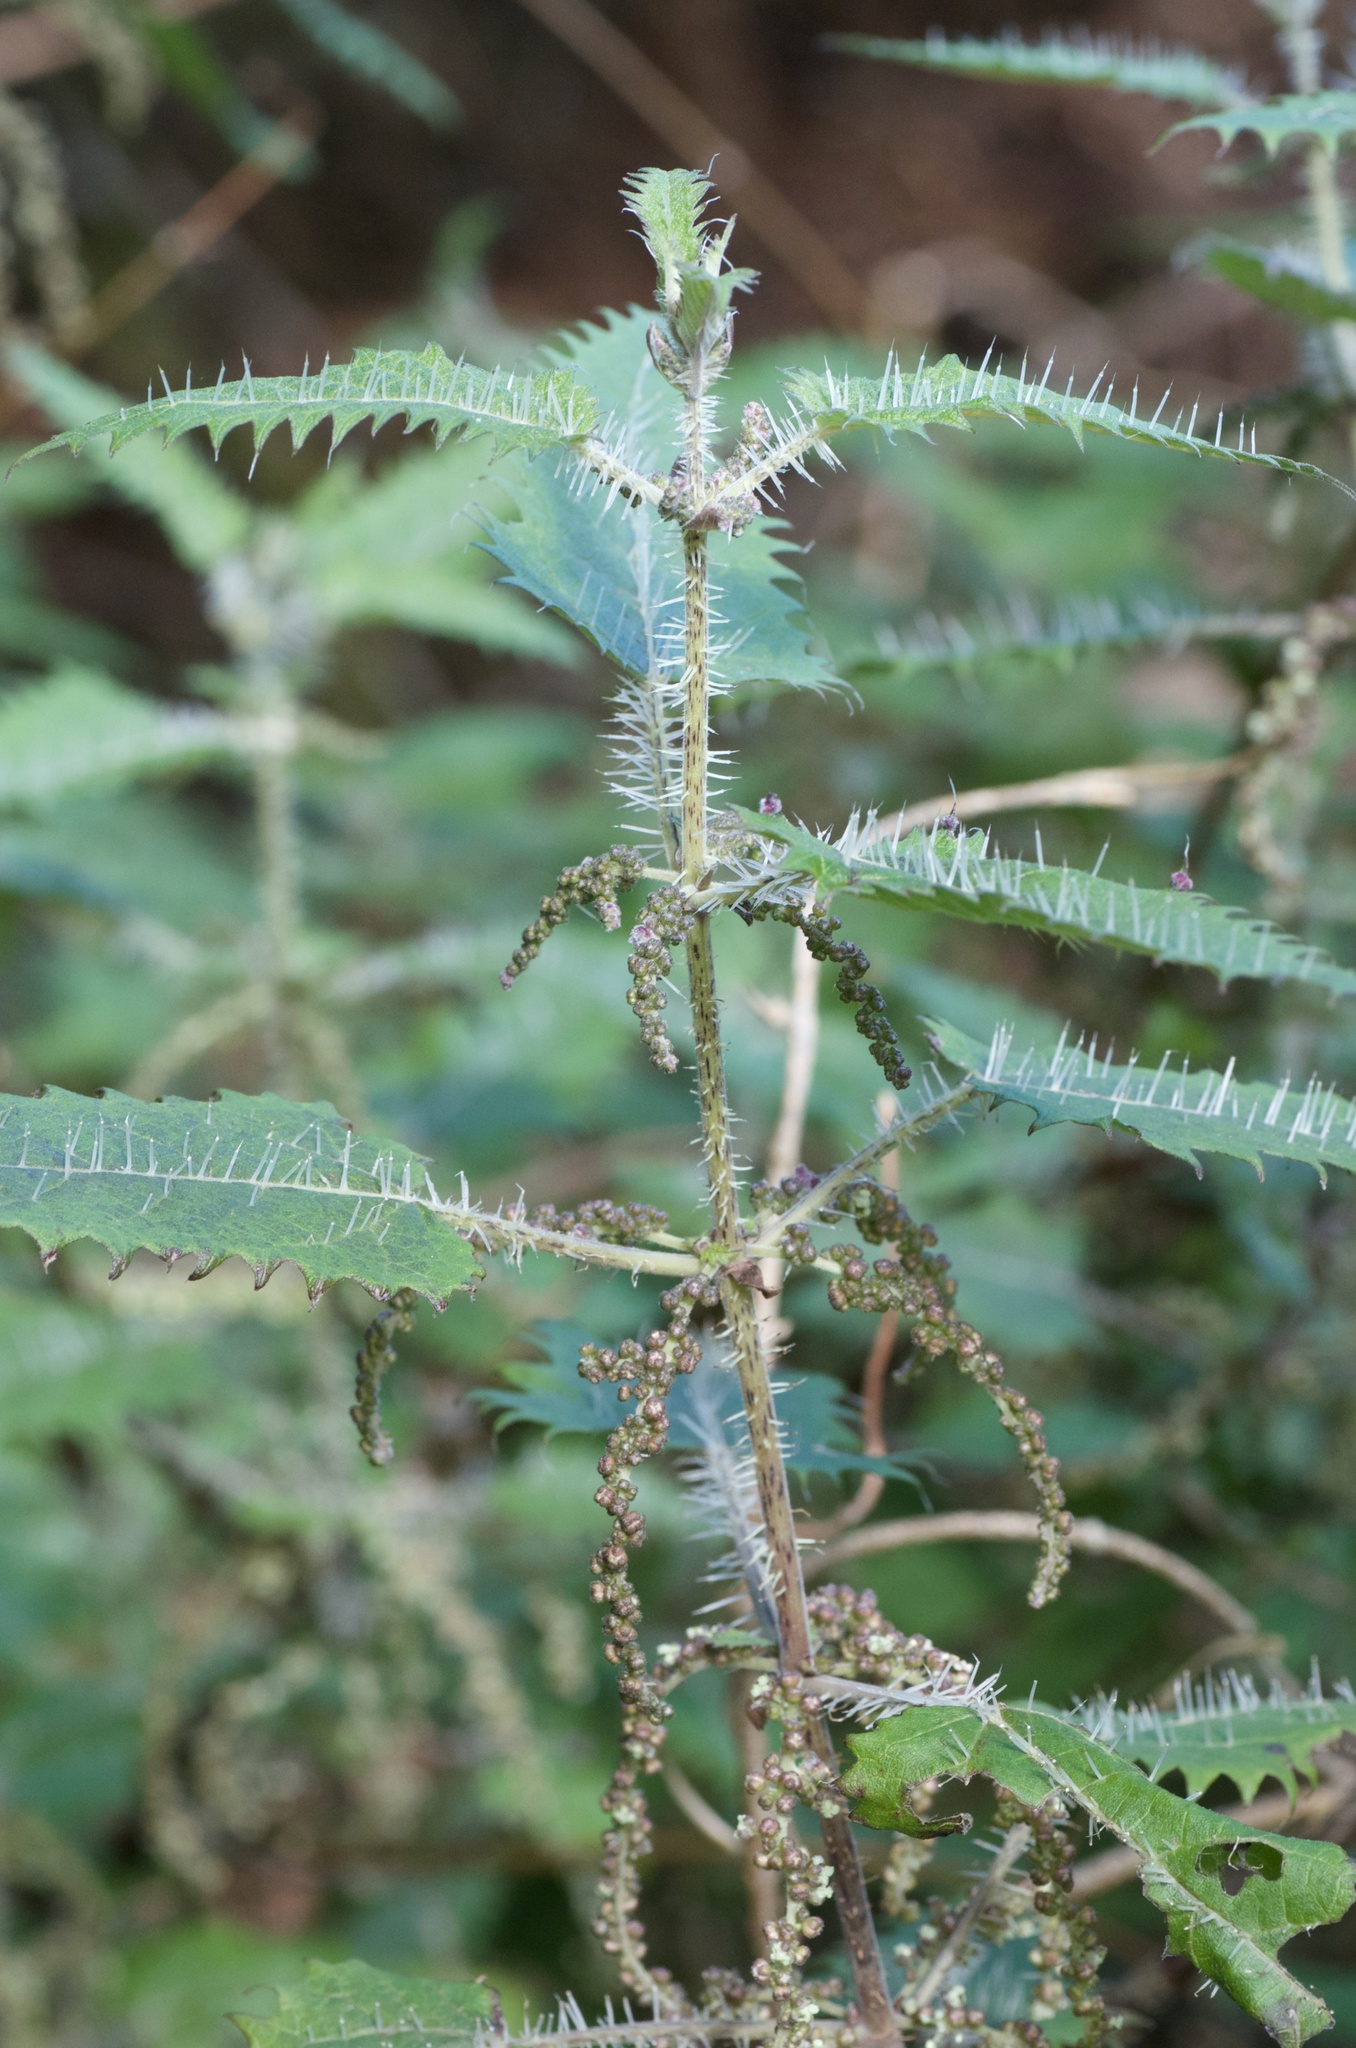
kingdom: Plantae
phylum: Tracheophyta
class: Magnoliopsida
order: Rosales
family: Urticaceae
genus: Urtica
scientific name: Urtica ferox
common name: Tree nettle
